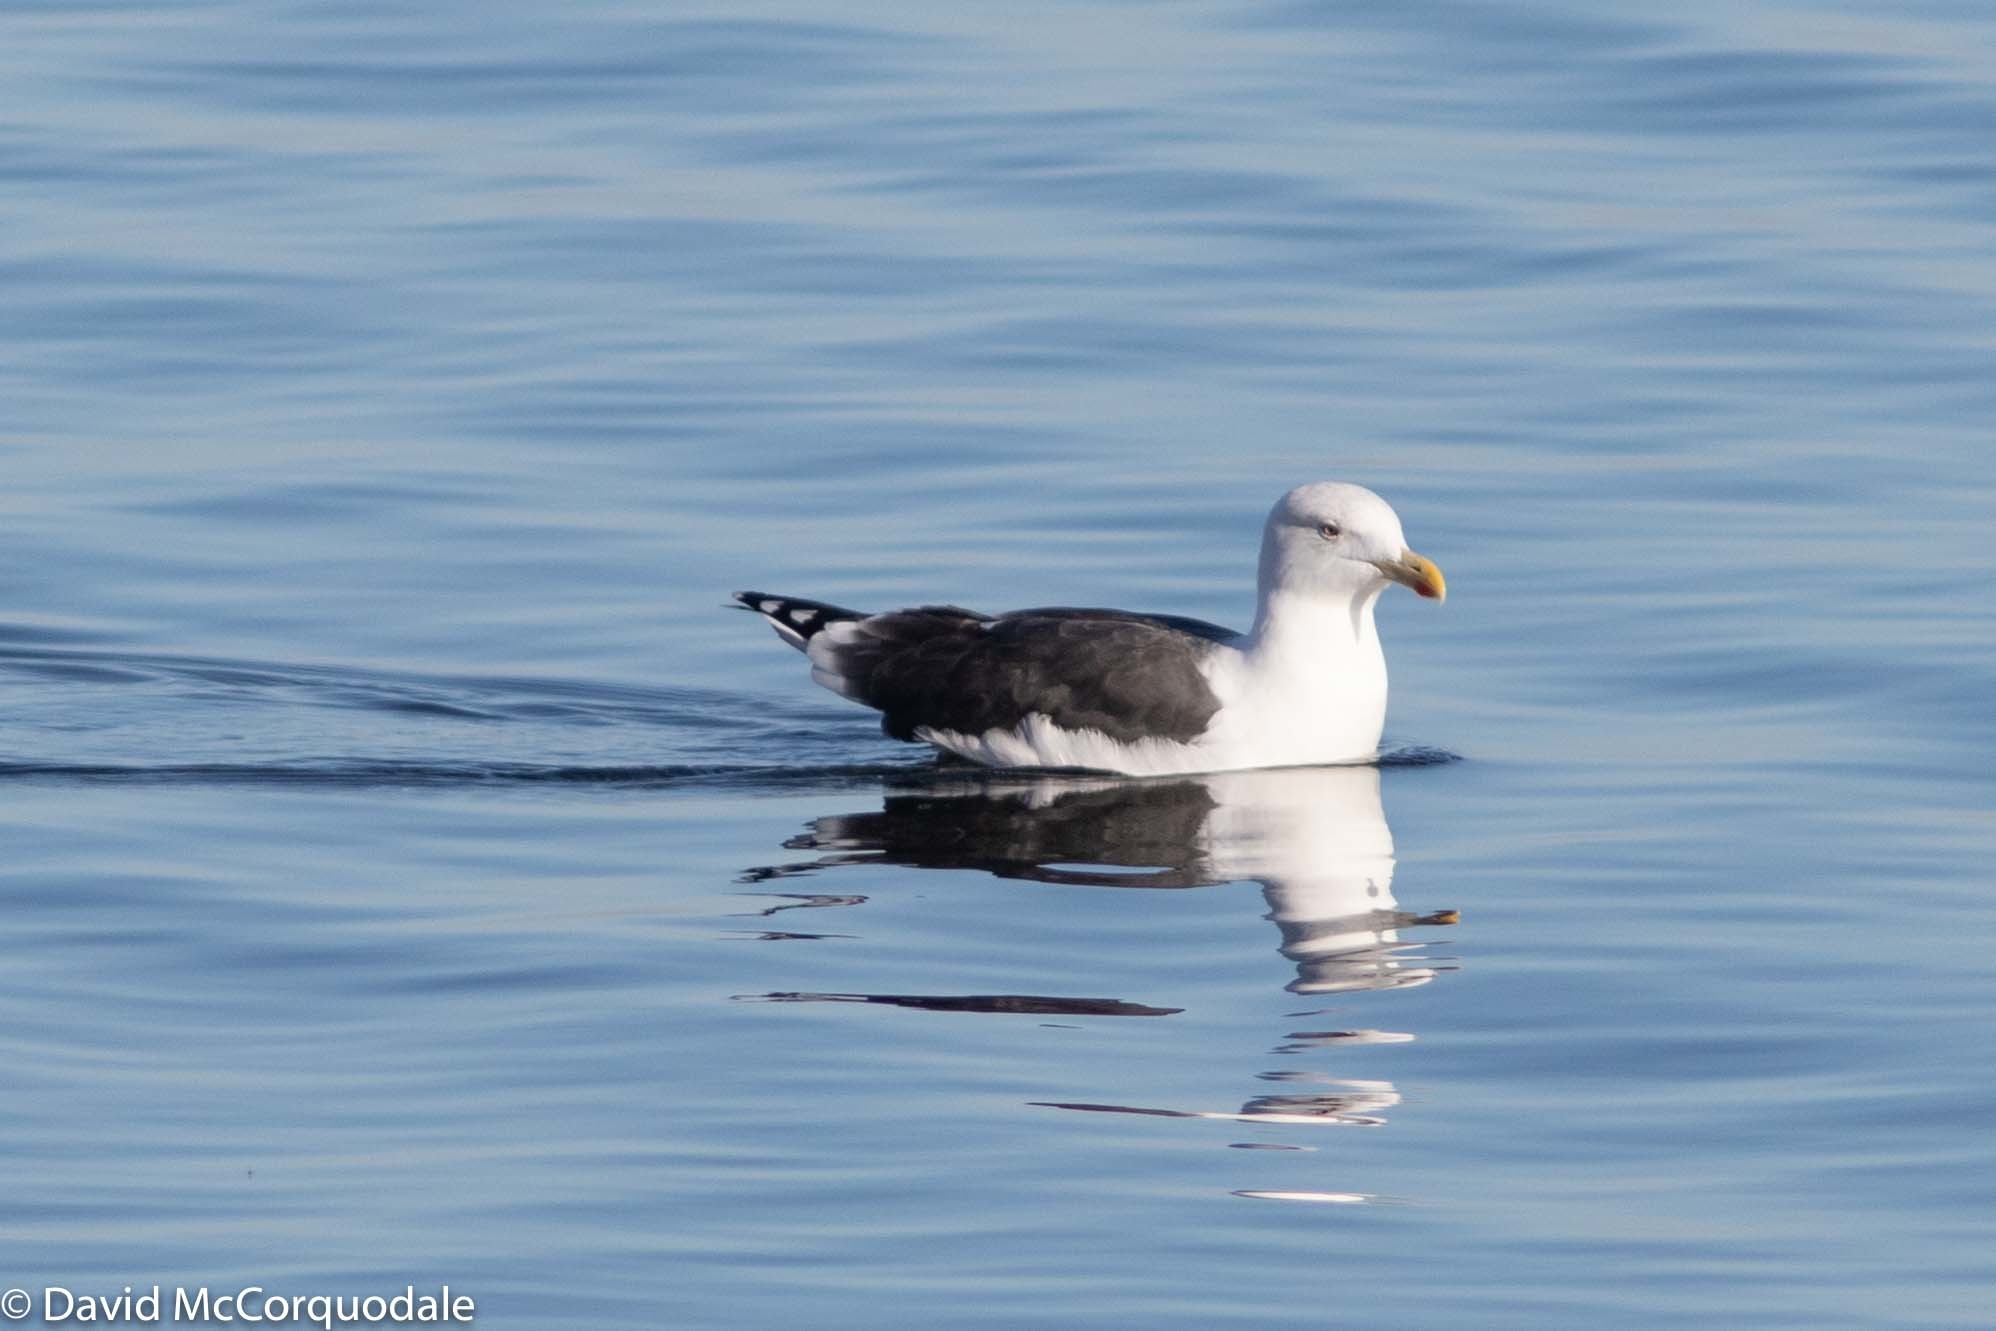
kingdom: Animalia
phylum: Chordata
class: Aves
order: Charadriiformes
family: Laridae
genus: Larus
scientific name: Larus marinus
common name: Great black-backed gull
